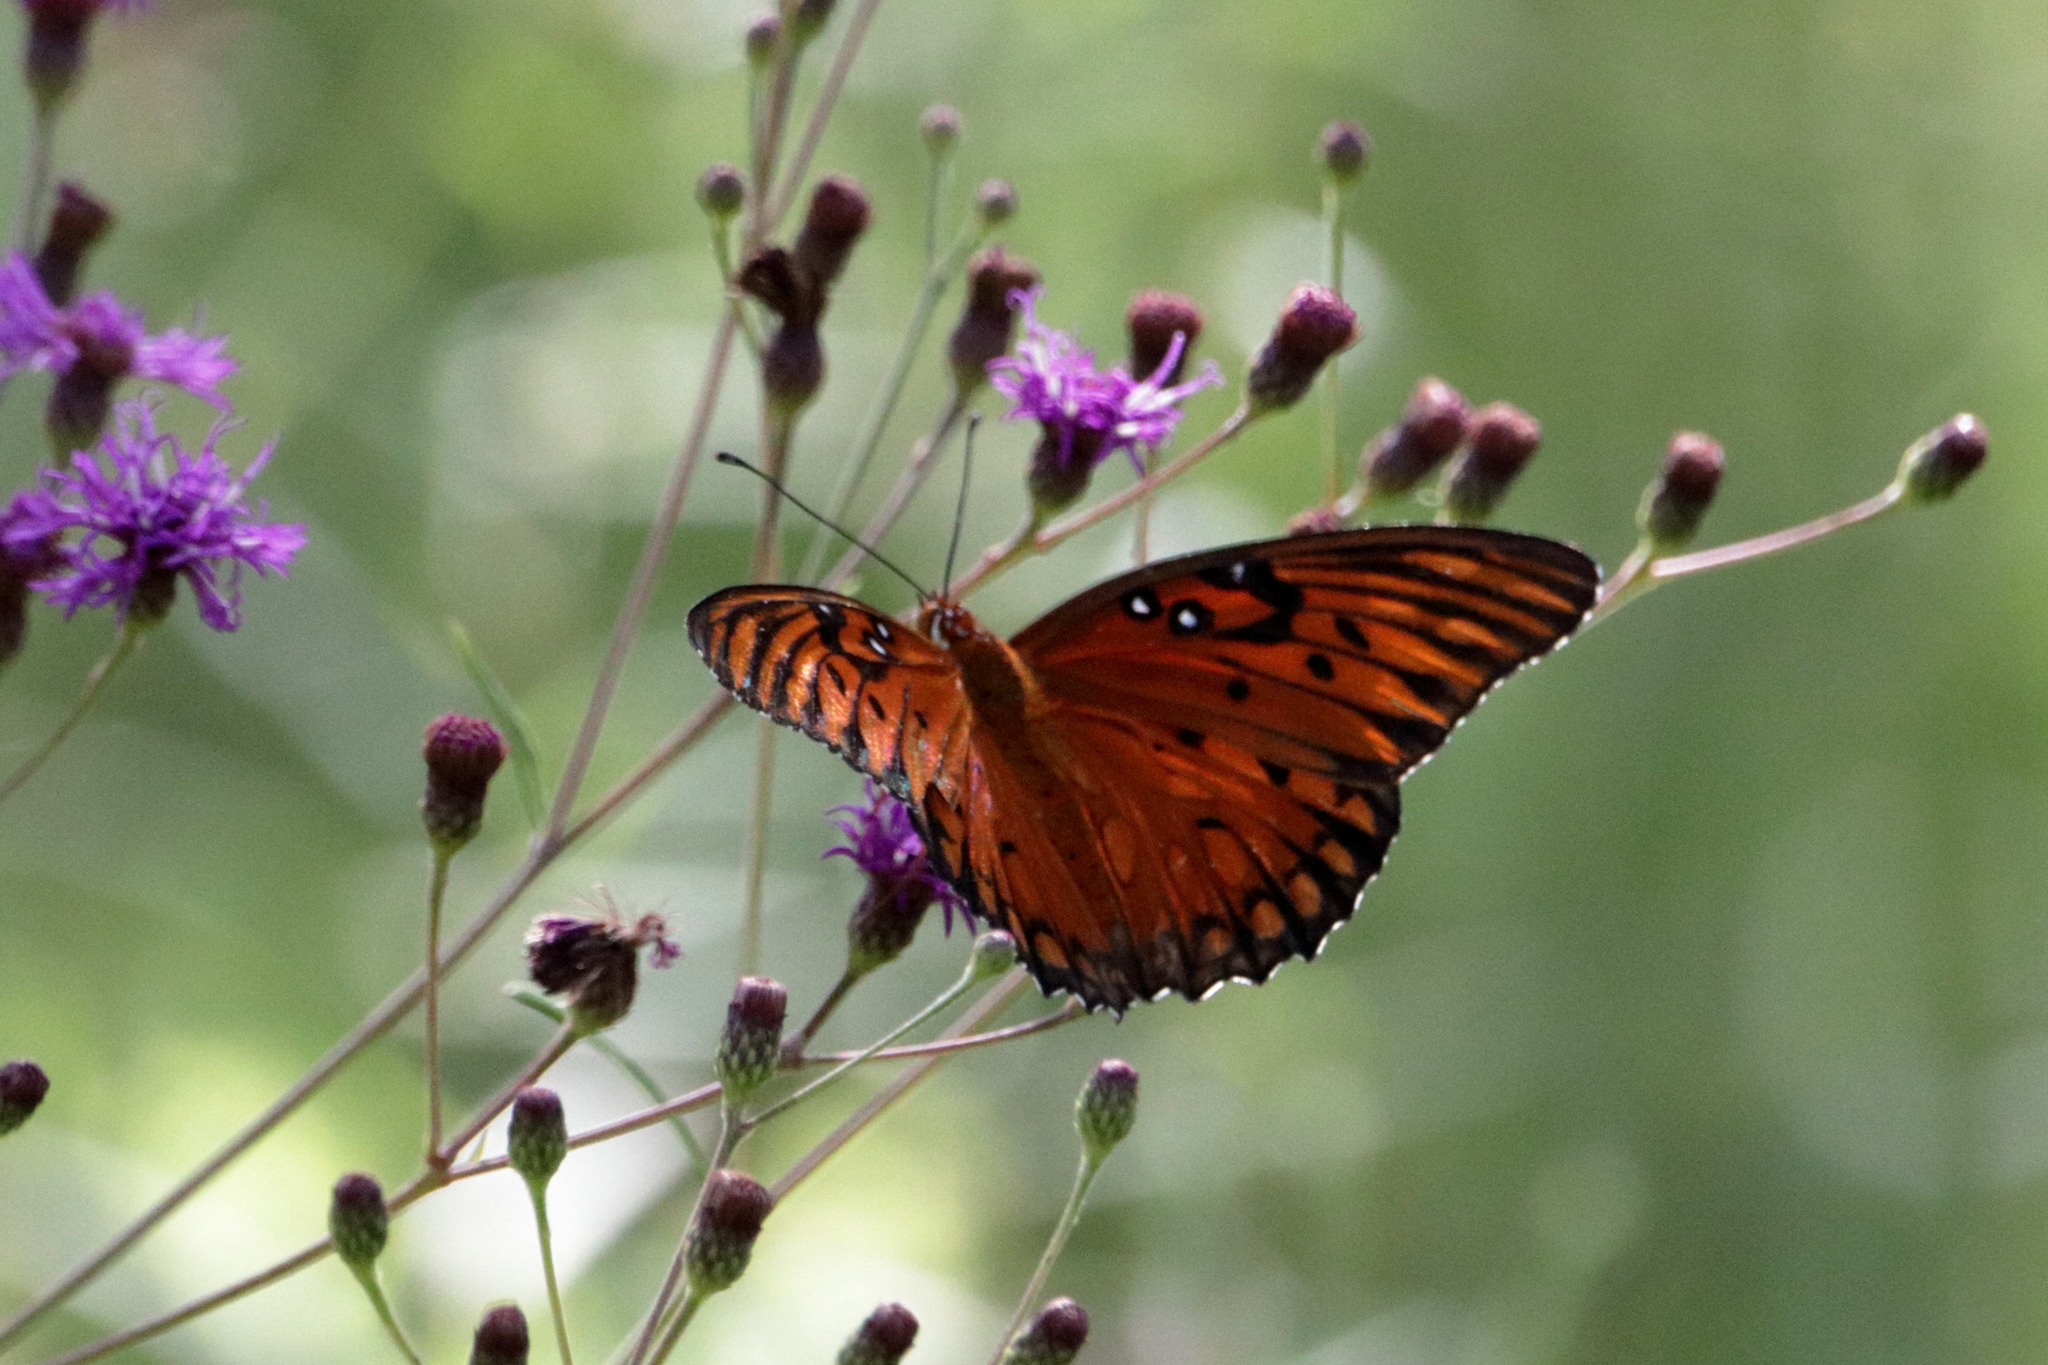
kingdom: Animalia
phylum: Arthropoda
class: Insecta
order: Lepidoptera
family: Nymphalidae
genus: Dione
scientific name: Dione vanillae
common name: Gulf fritillary
